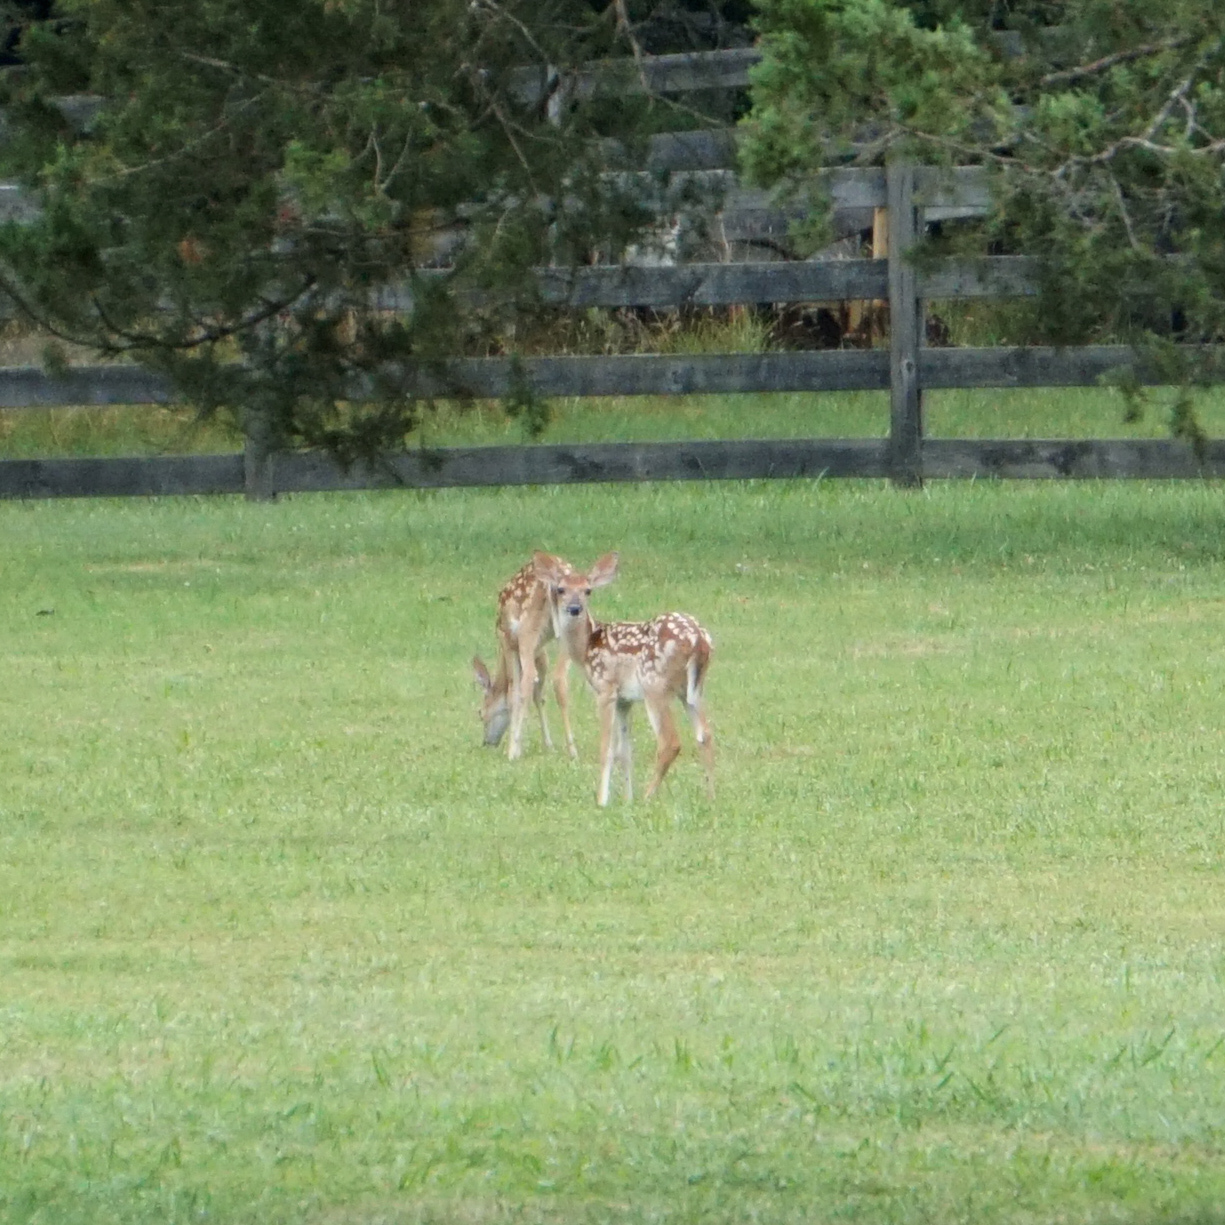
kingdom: Animalia
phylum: Chordata
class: Mammalia
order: Artiodactyla
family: Cervidae
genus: Odocoileus
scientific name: Odocoileus virginianus
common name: White-tailed deer
